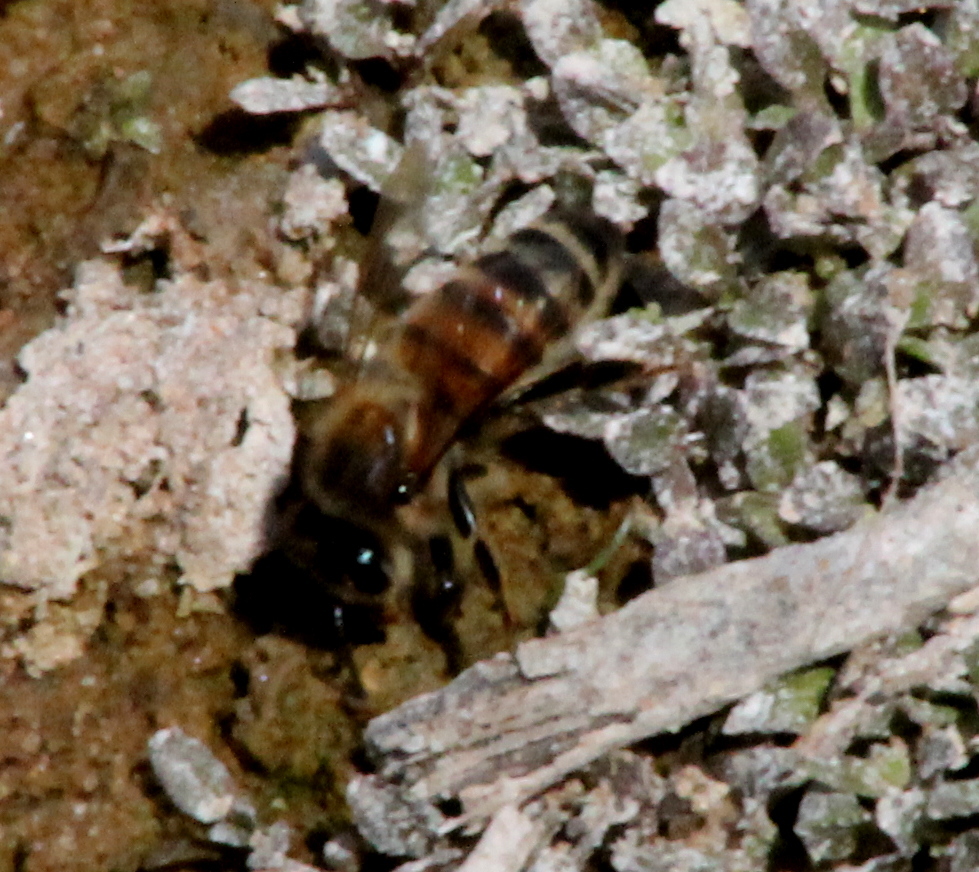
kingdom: Animalia
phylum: Arthropoda
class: Insecta
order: Hymenoptera
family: Apidae
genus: Apis
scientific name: Apis mellifera
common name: Honey bee
